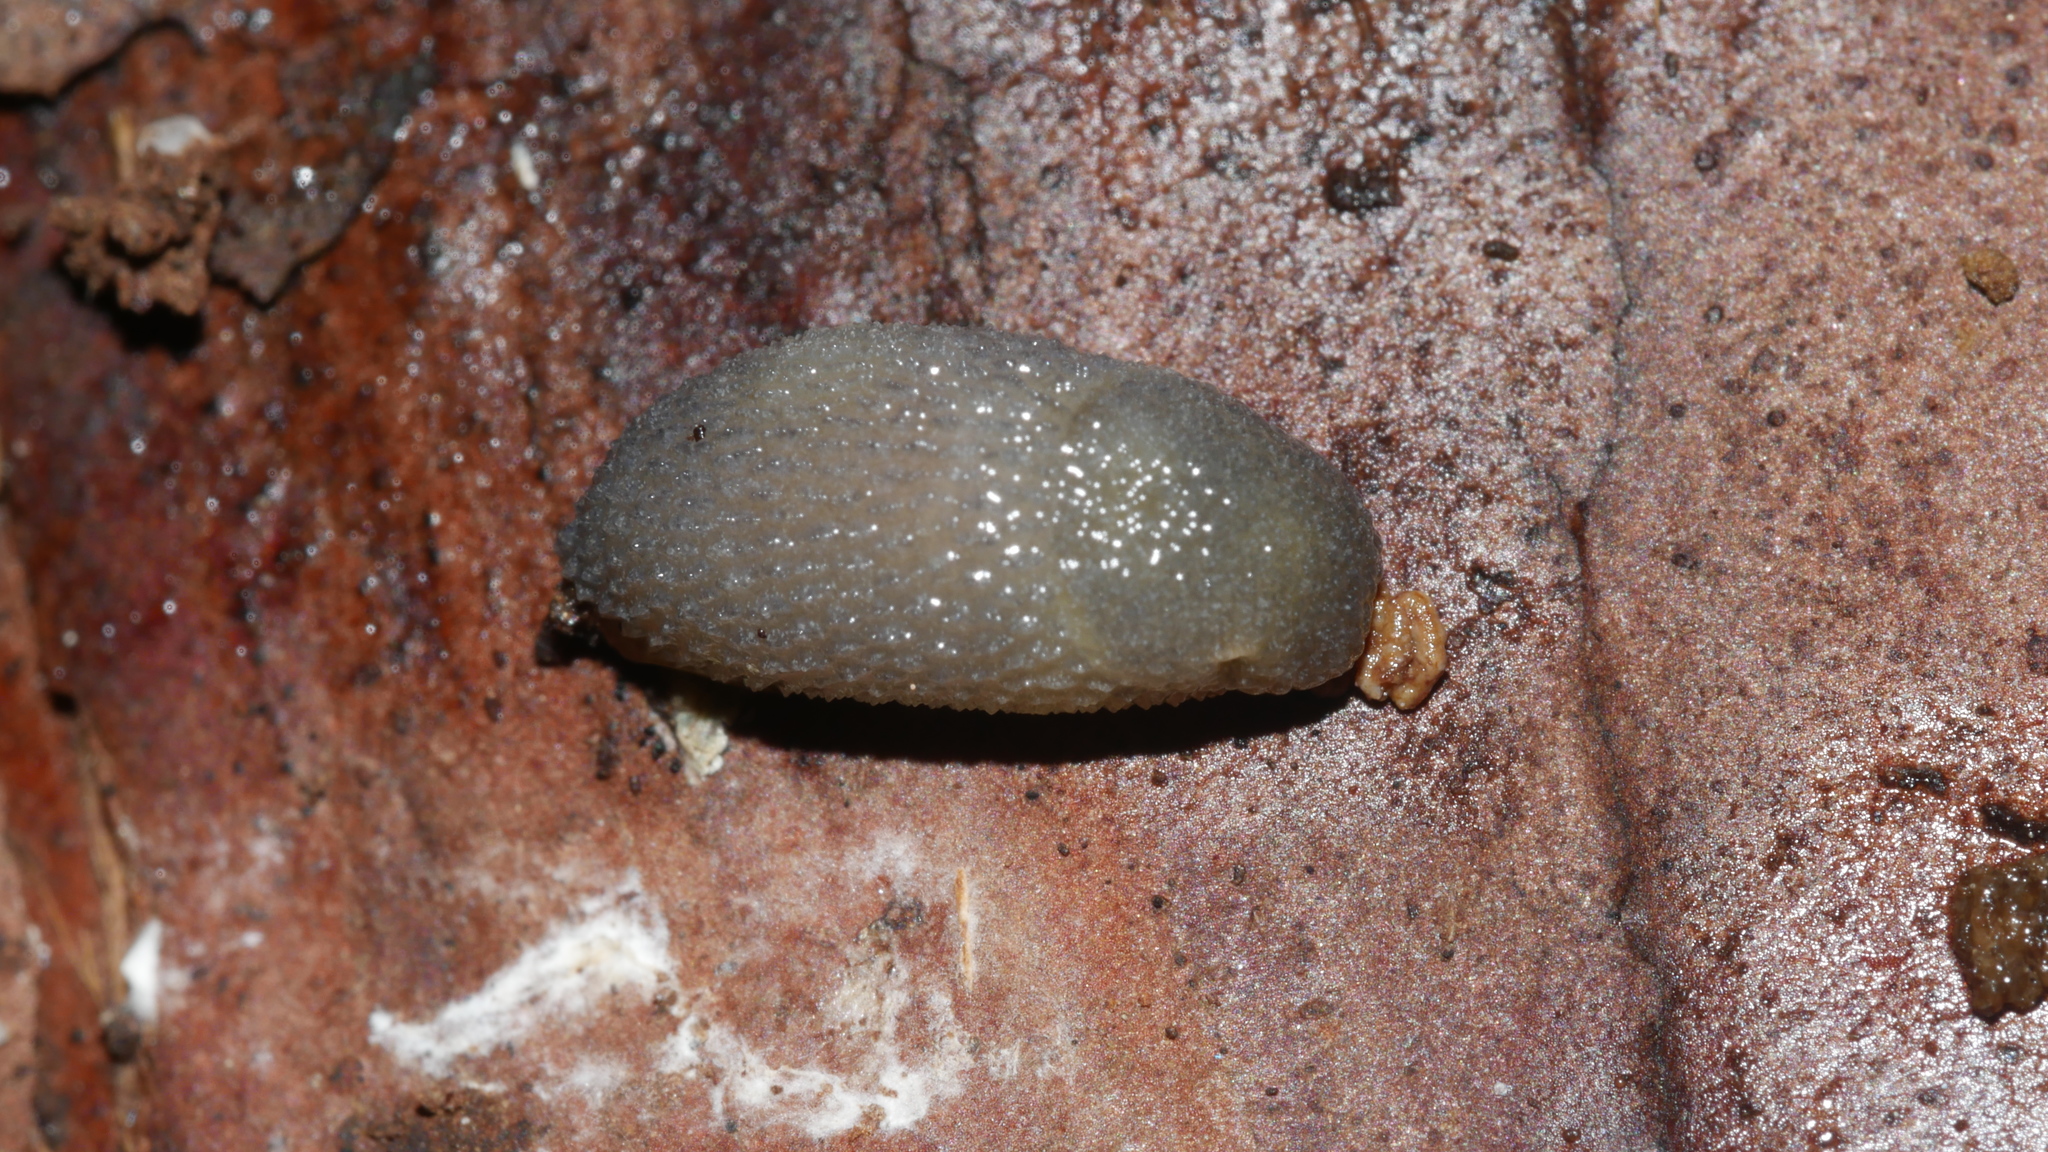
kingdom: Animalia
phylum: Mollusca
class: Gastropoda
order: Stylommatophora
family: Arionidae
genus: Arion
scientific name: Arion intermedius
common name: Hedgehog slug
